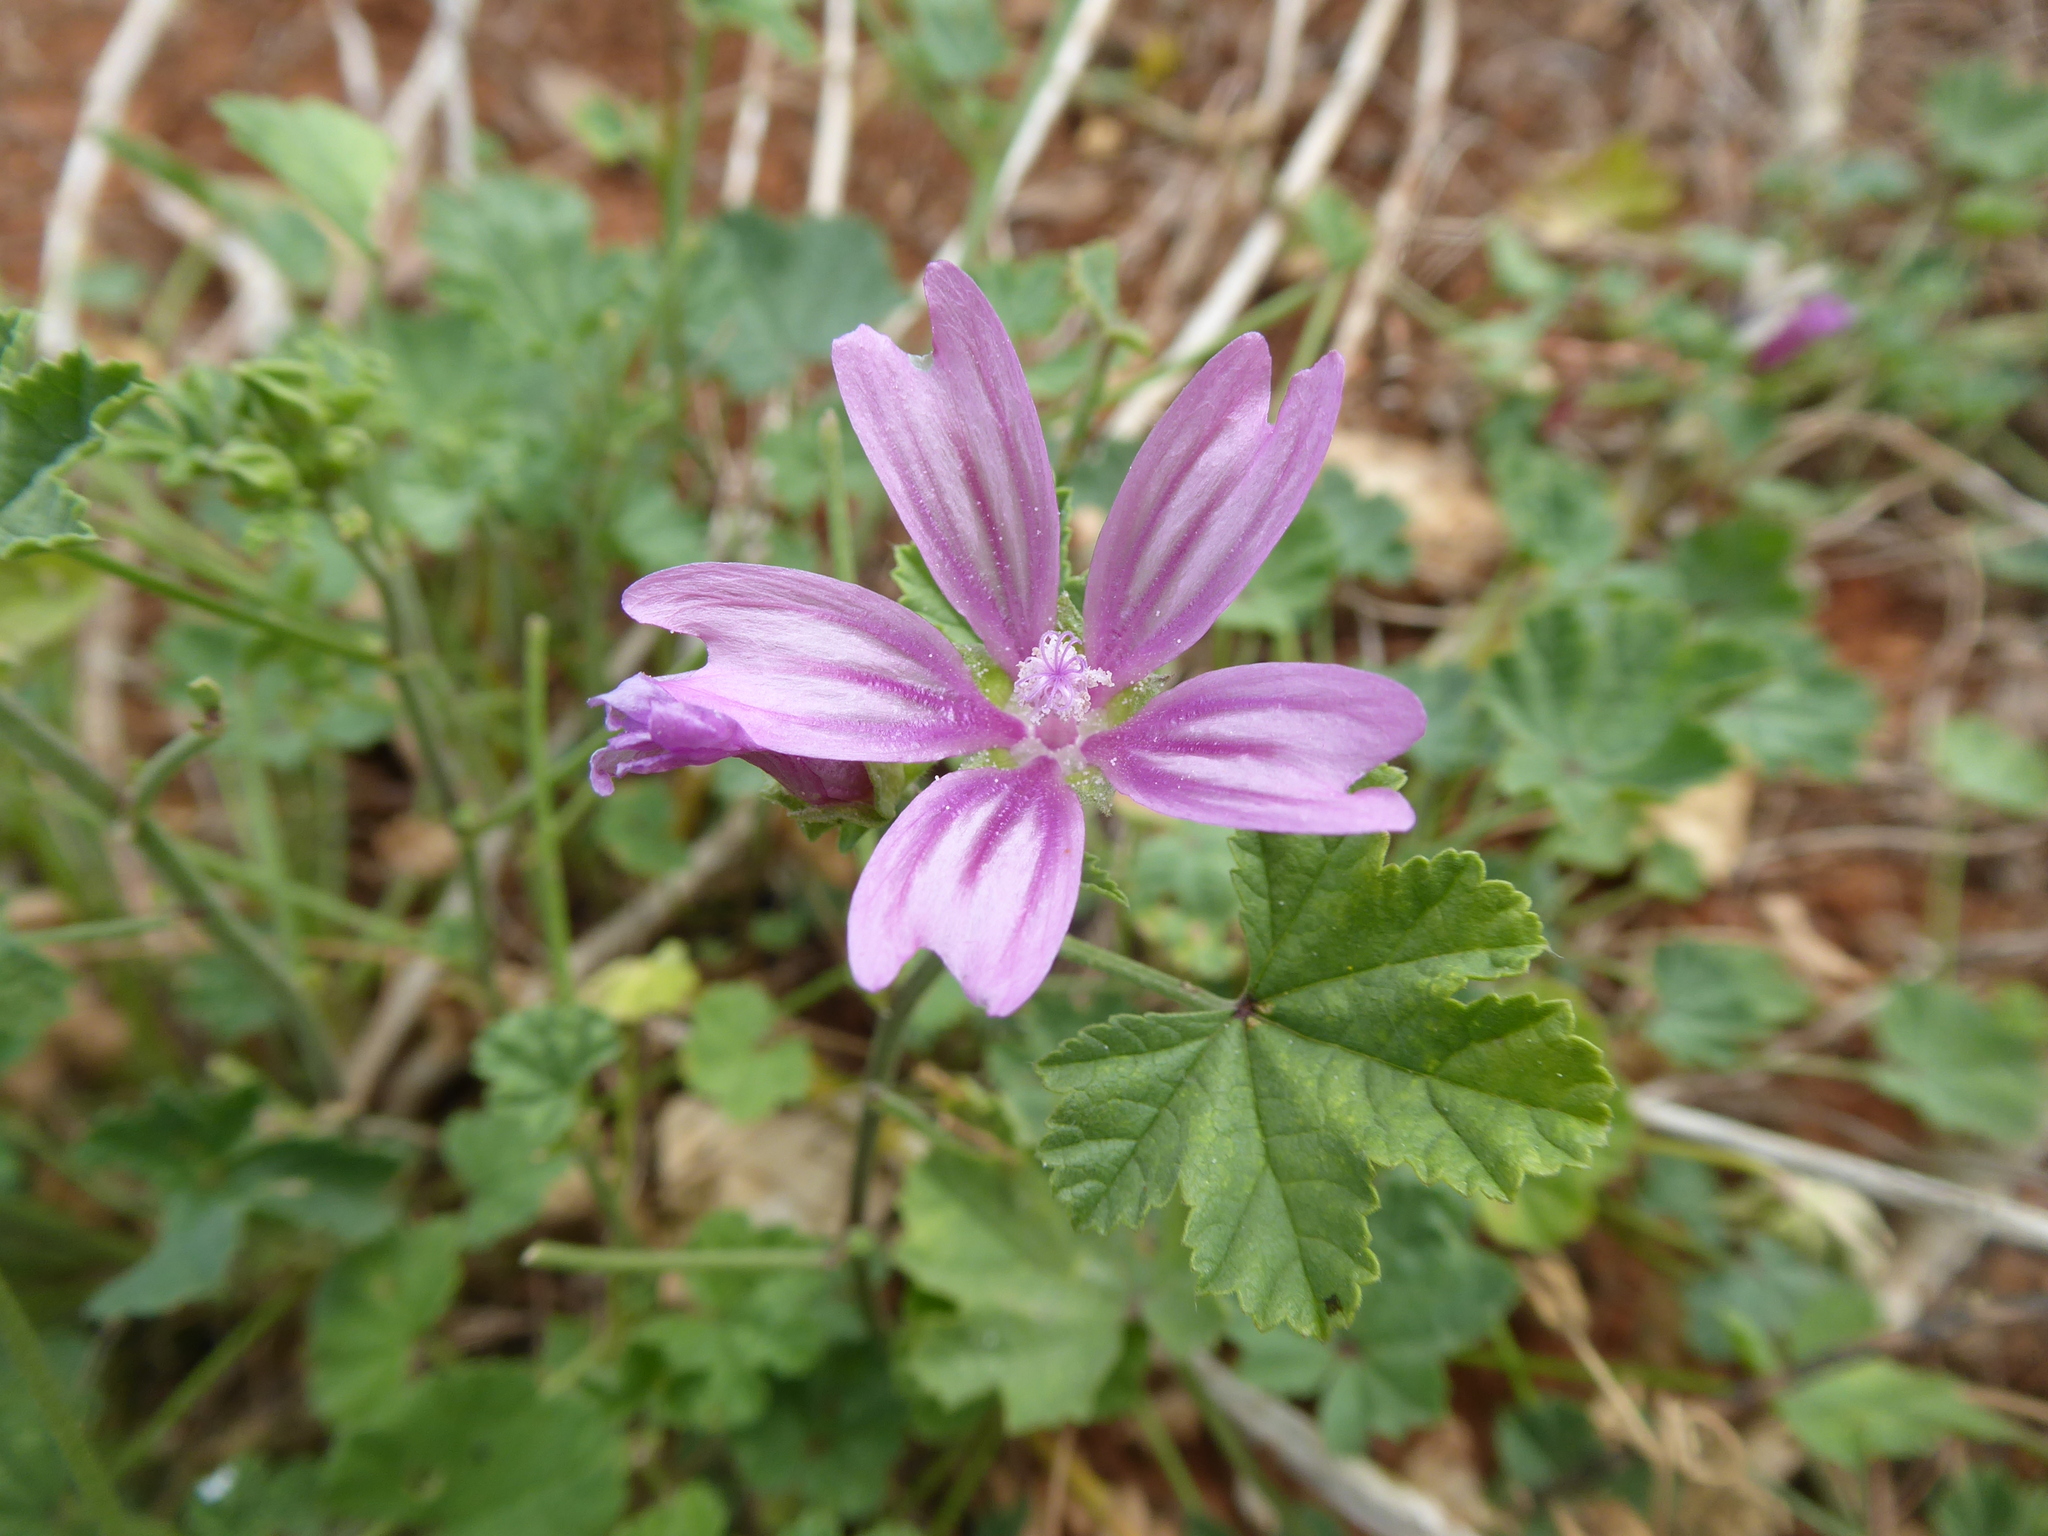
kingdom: Plantae
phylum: Tracheophyta
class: Magnoliopsida
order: Malvales
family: Malvaceae
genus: Malva
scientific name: Malva sylvestris
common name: Common mallow
